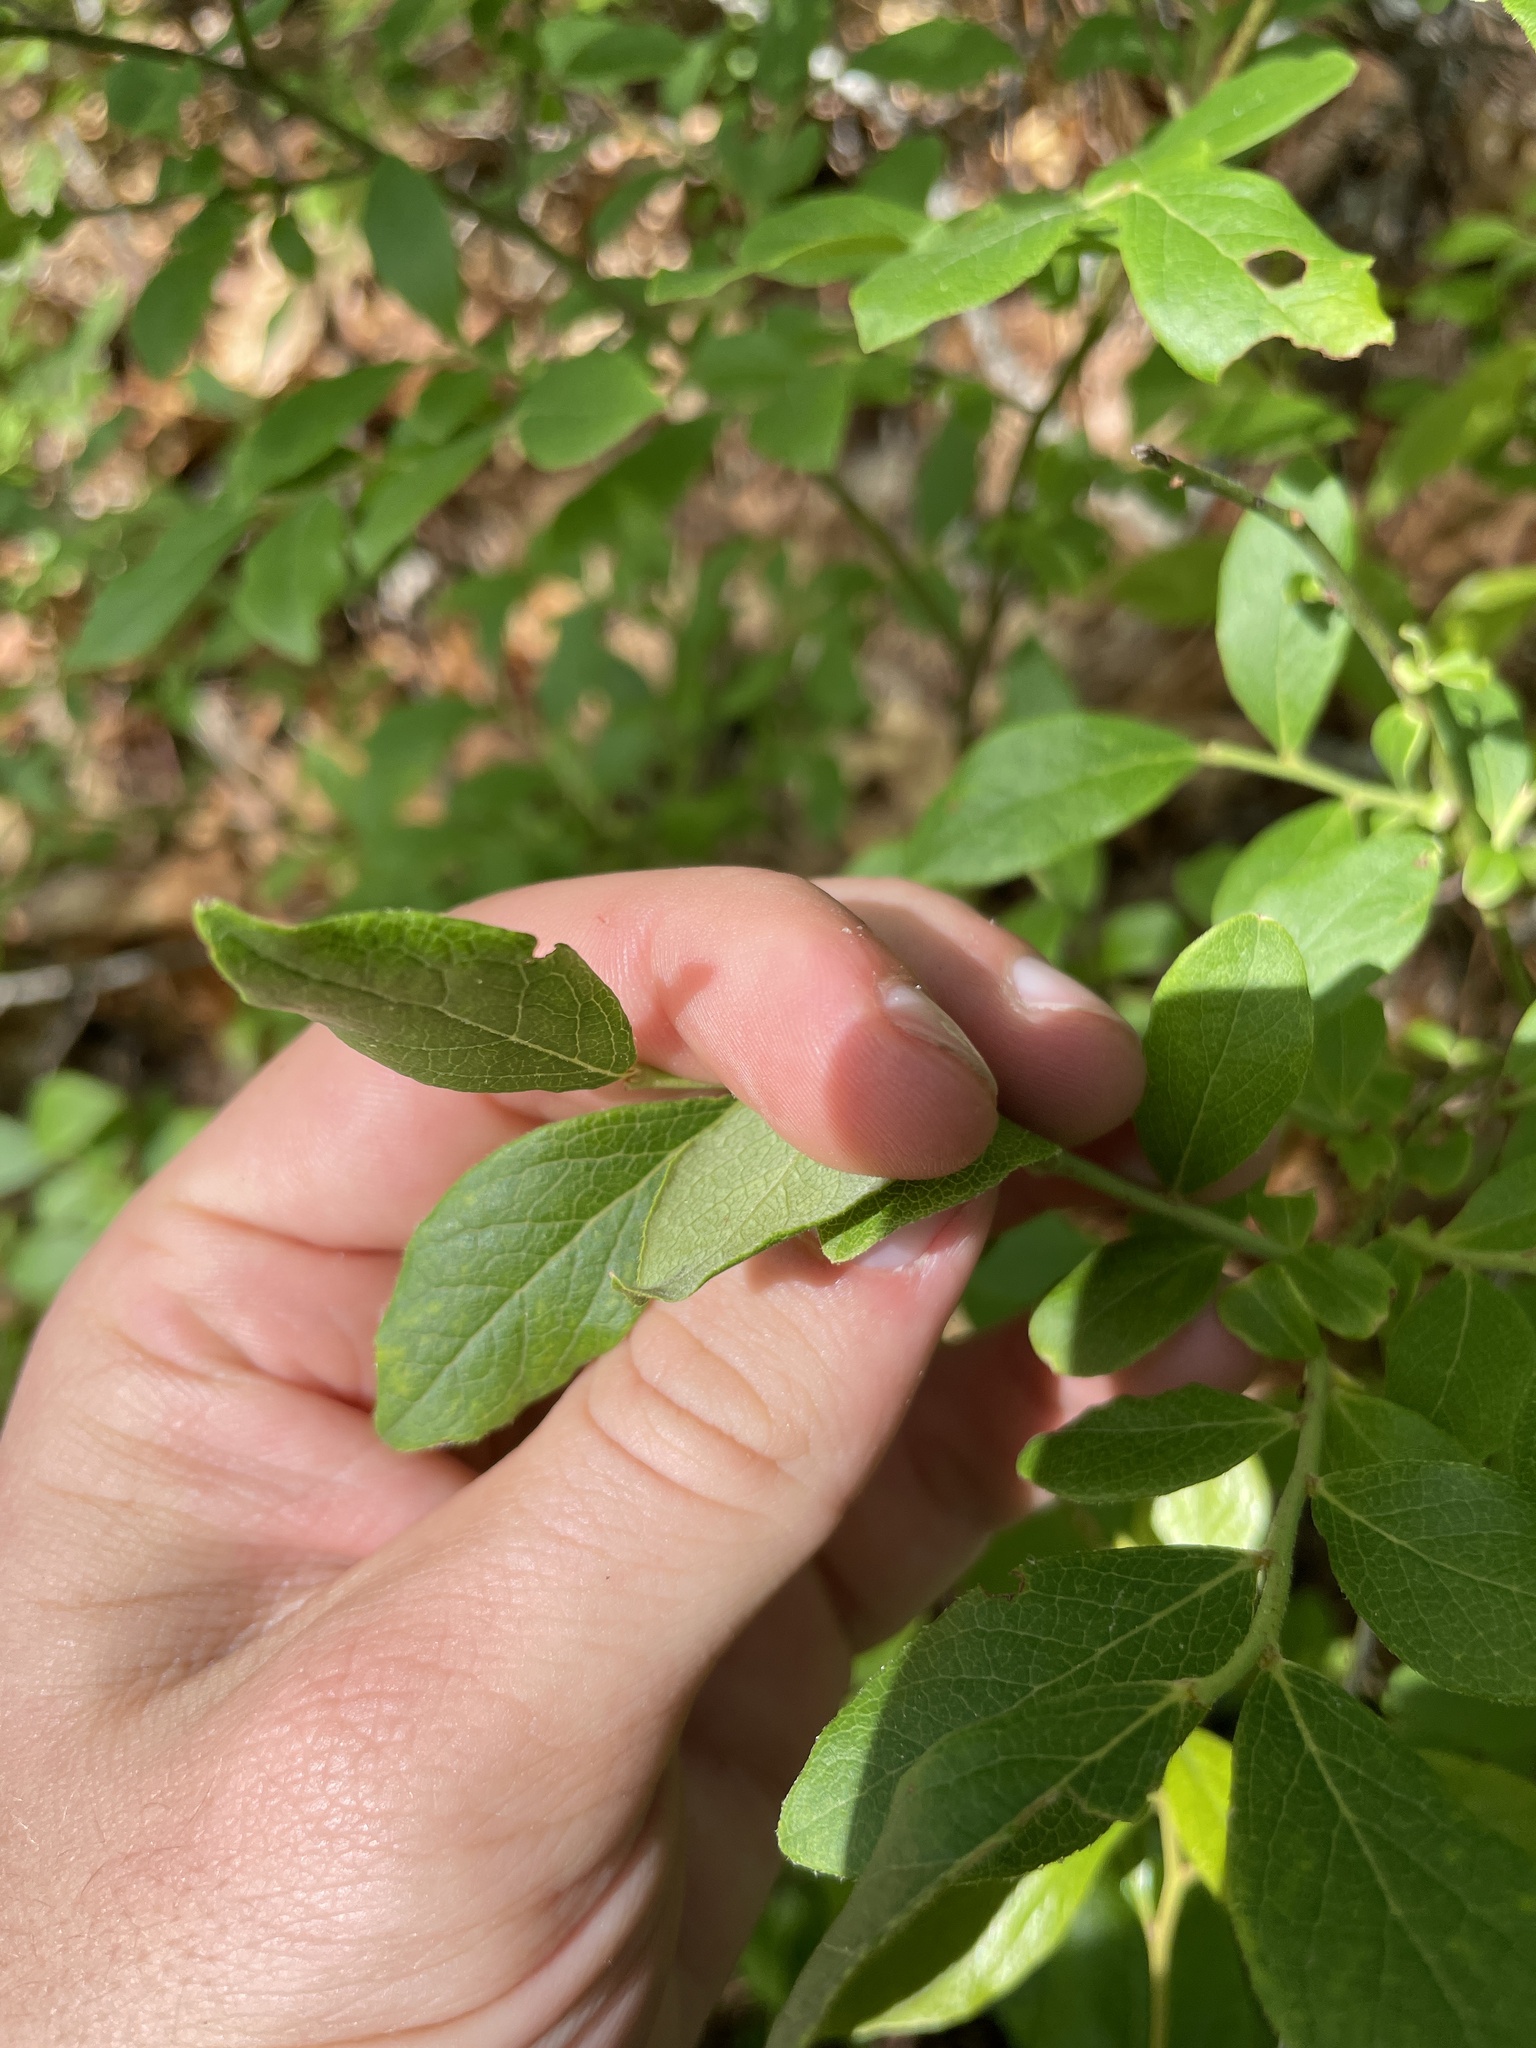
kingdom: Plantae
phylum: Tracheophyta
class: Magnoliopsida
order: Ericales
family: Ericaceae
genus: Vaccinium
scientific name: Vaccinium pallidum
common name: Blue ridge blueberry
